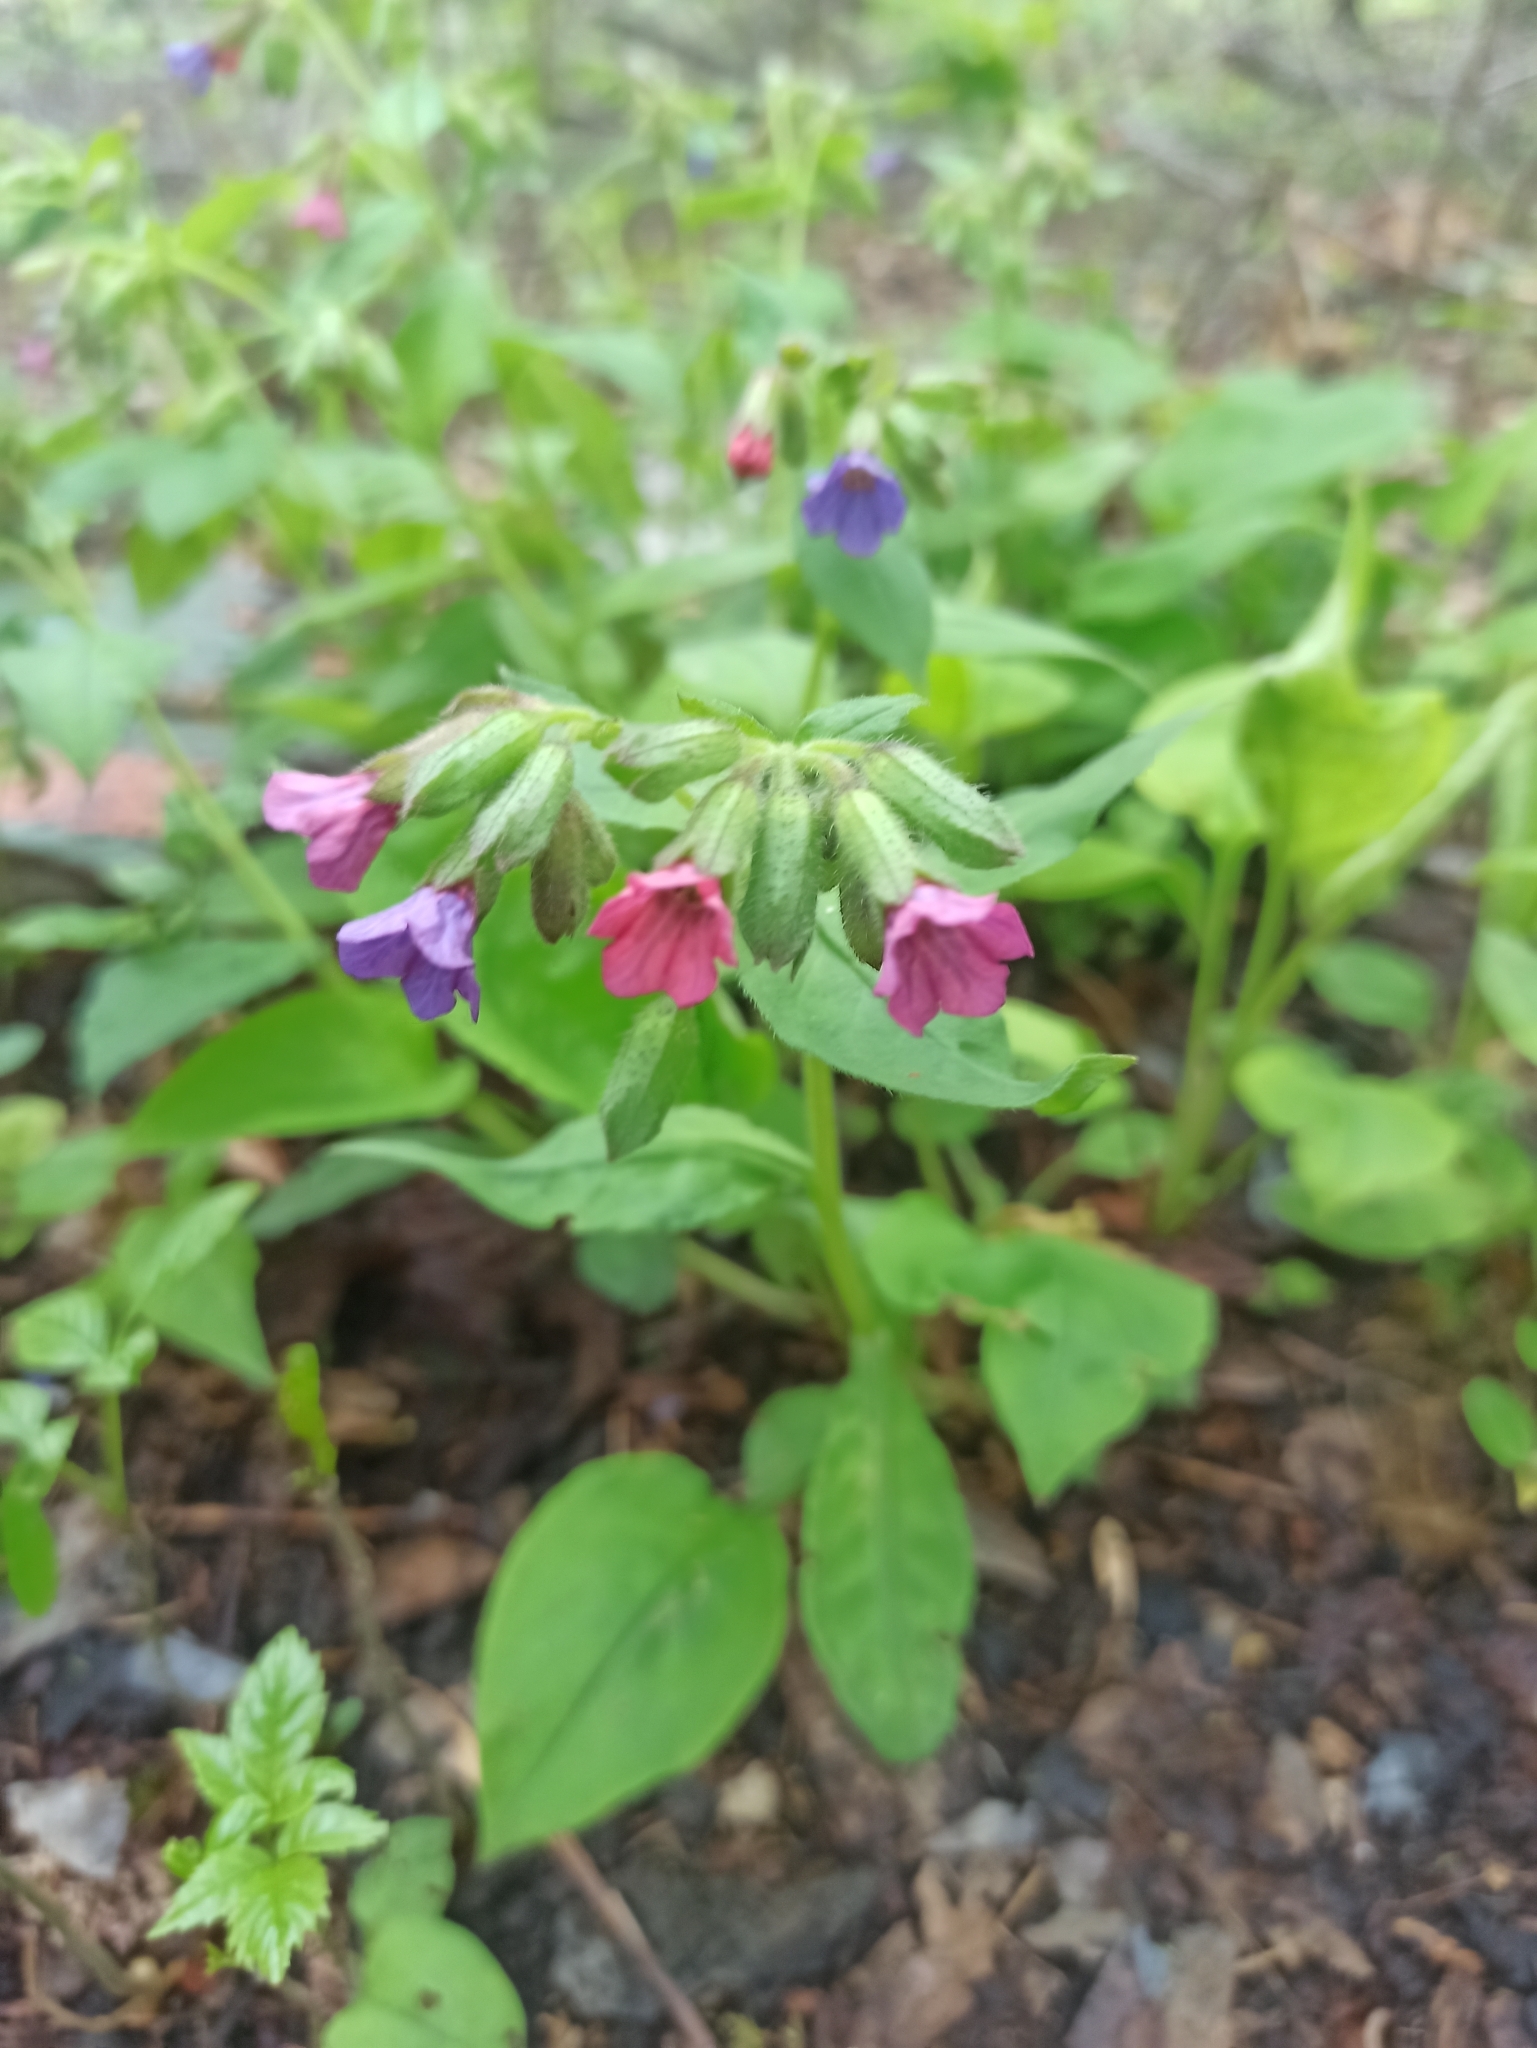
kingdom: Plantae
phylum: Tracheophyta
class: Magnoliopsida
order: Boraginales
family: Boraginaceae
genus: Pulmonaria
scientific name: Pulmonaria obscura
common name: Suffolk lungwort
